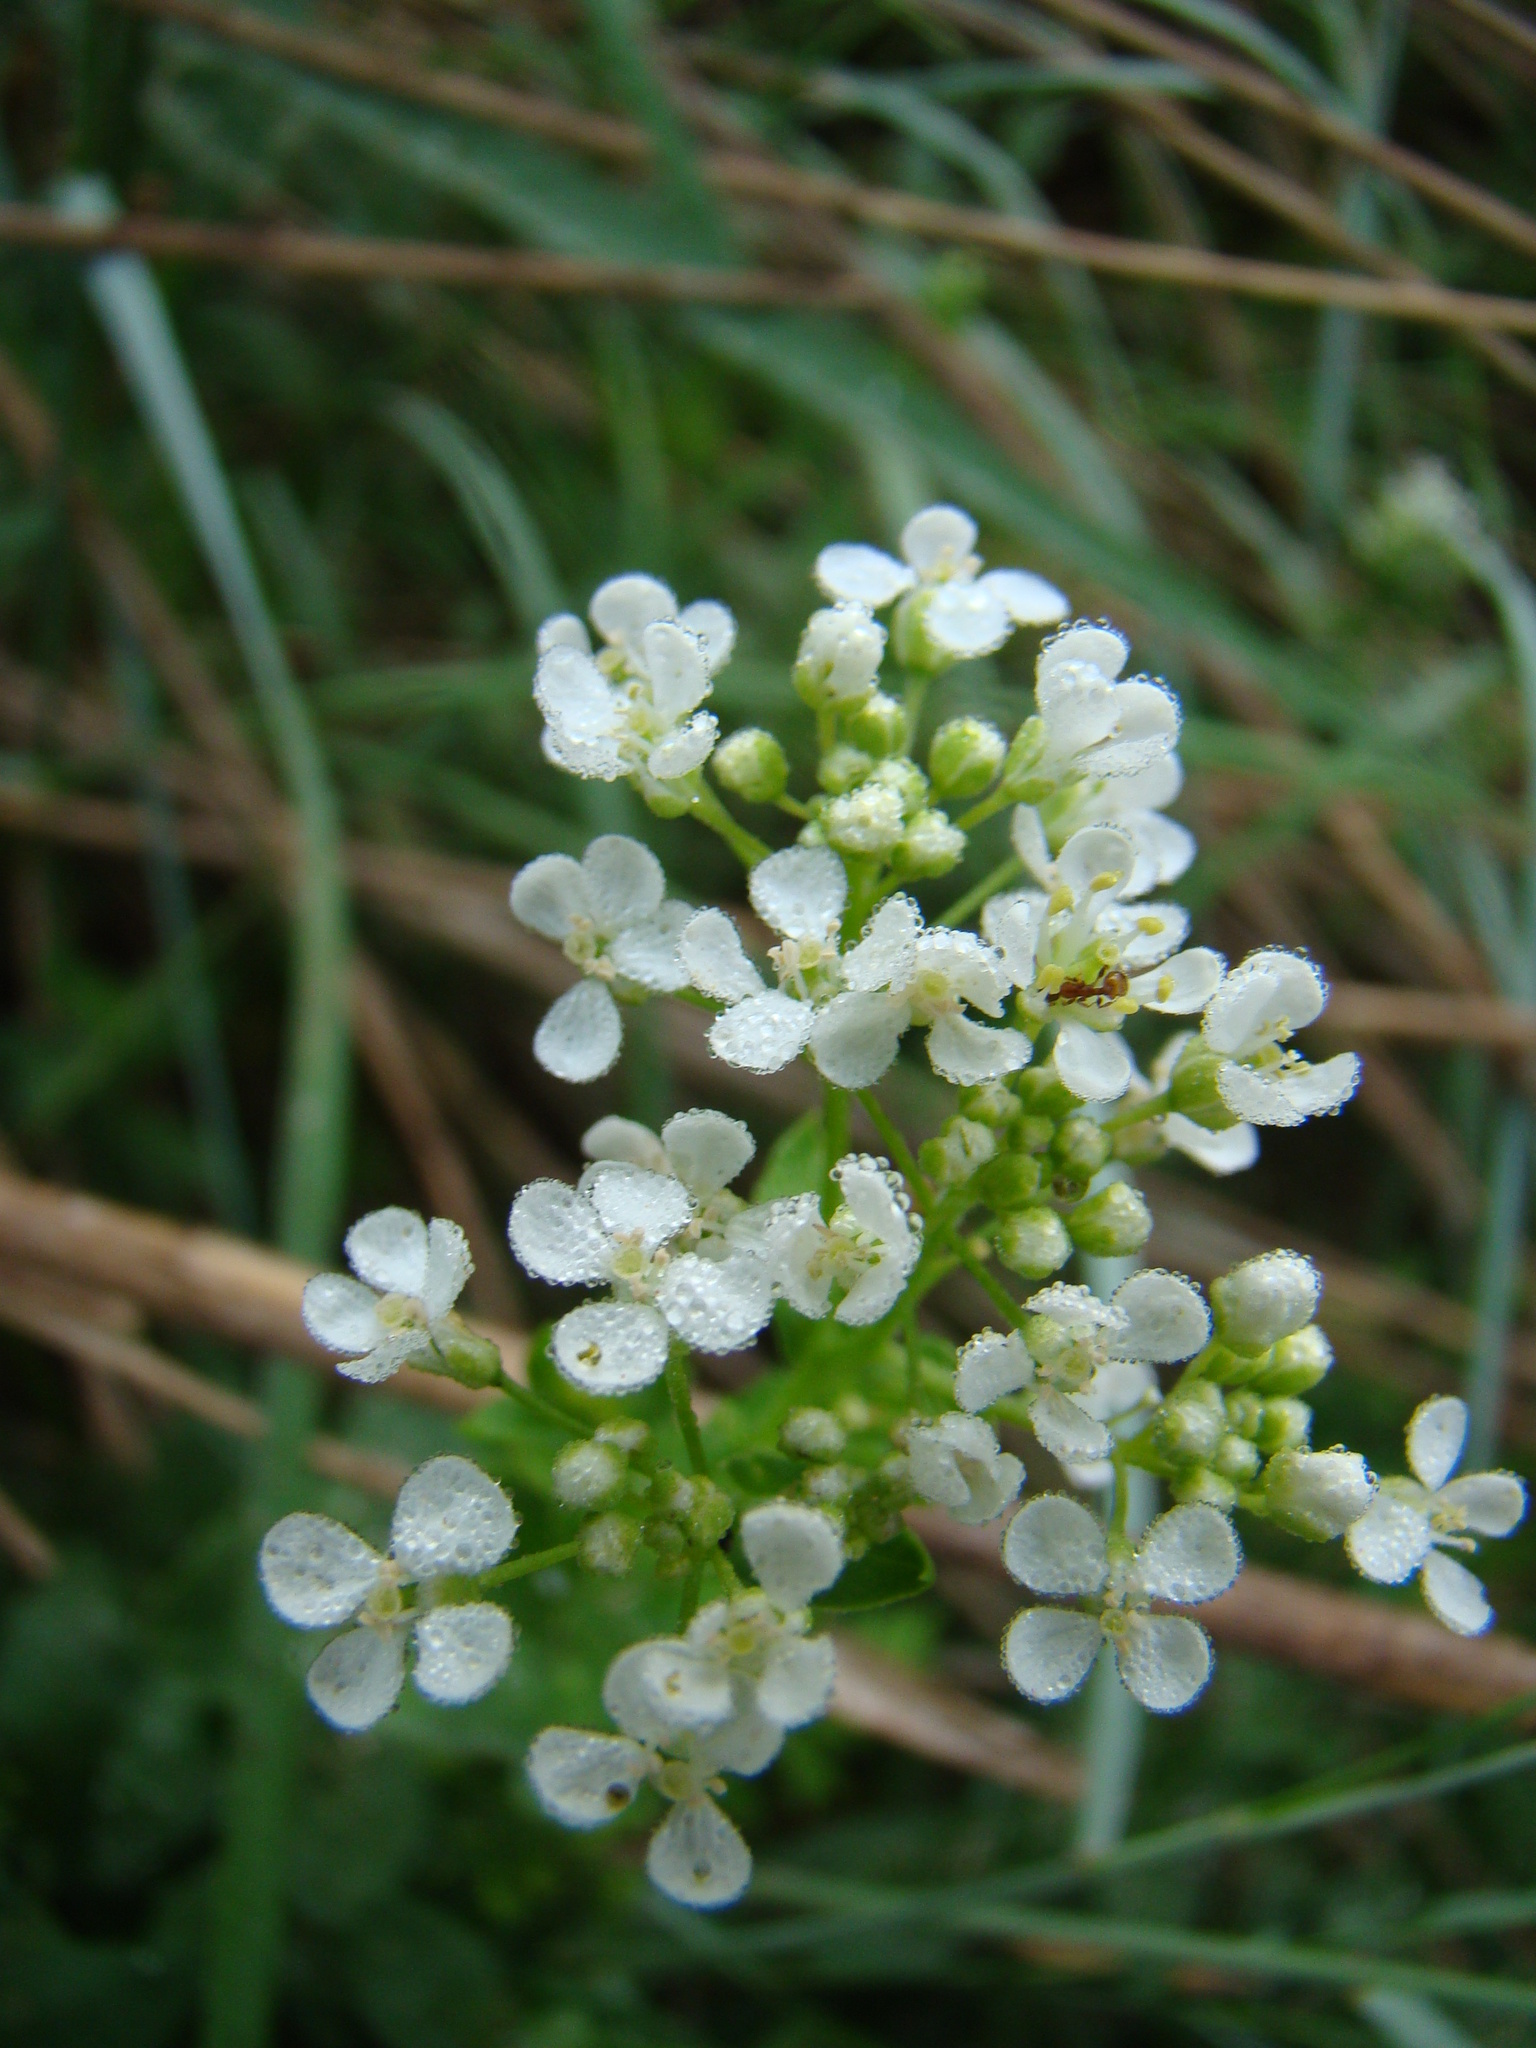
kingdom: Plantae
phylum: Tracheophyta
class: Magnoliopsida
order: Brassicales
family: Brassicaceae
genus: Lepidium
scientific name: Lepidium draba
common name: Hoary cress
